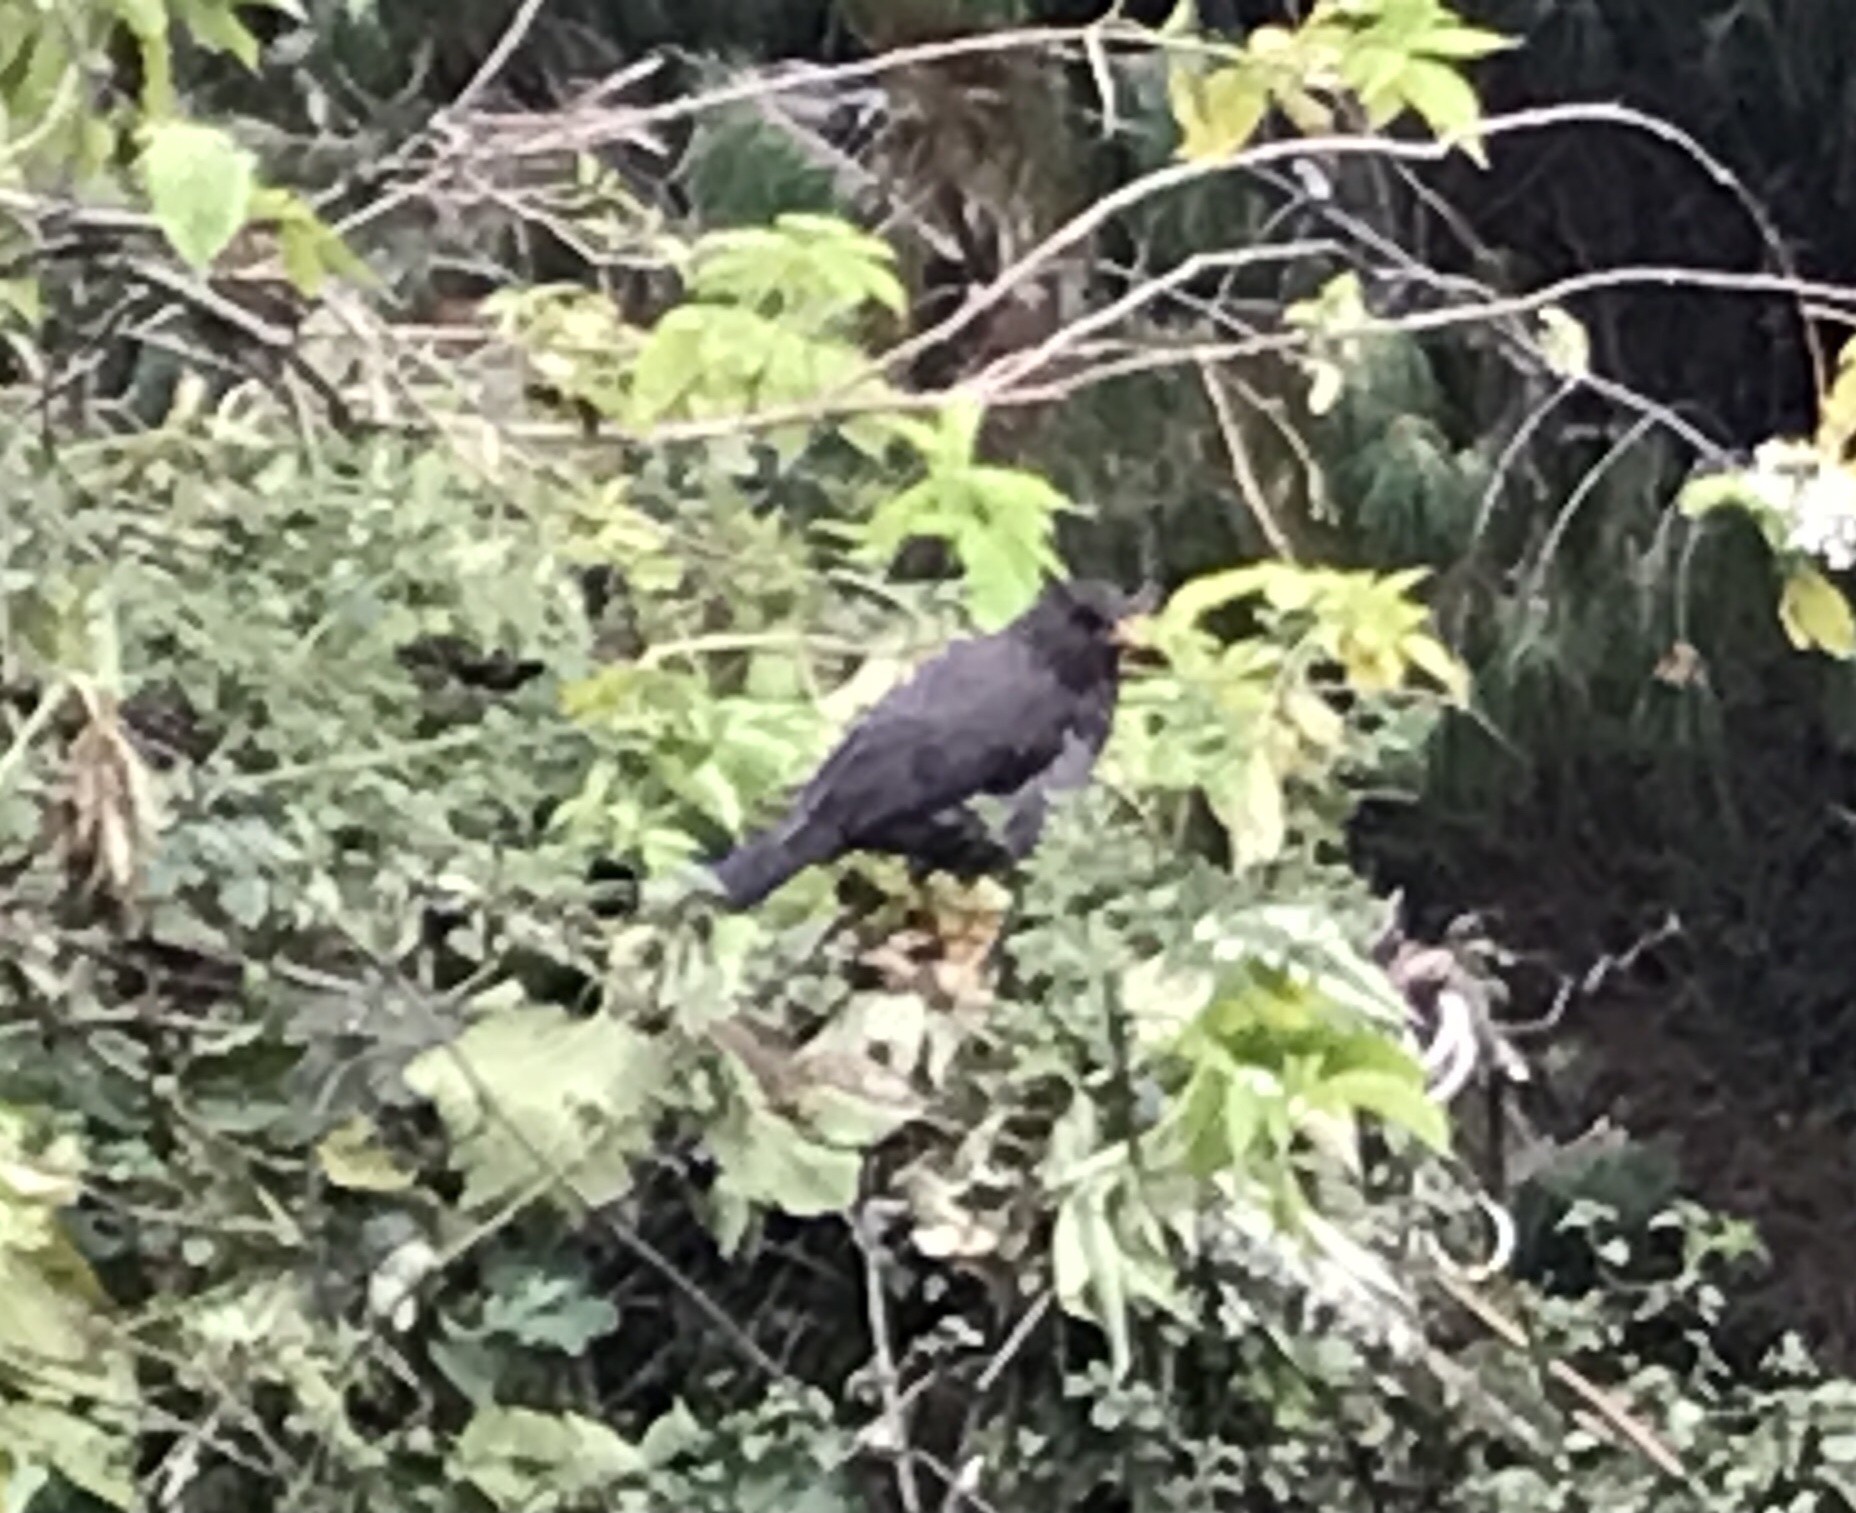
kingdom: Animalia
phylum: Chordata
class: Aves
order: Passeriformes
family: Turdidae
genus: Turdus
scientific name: Turdus fuscater
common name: Great thrush
